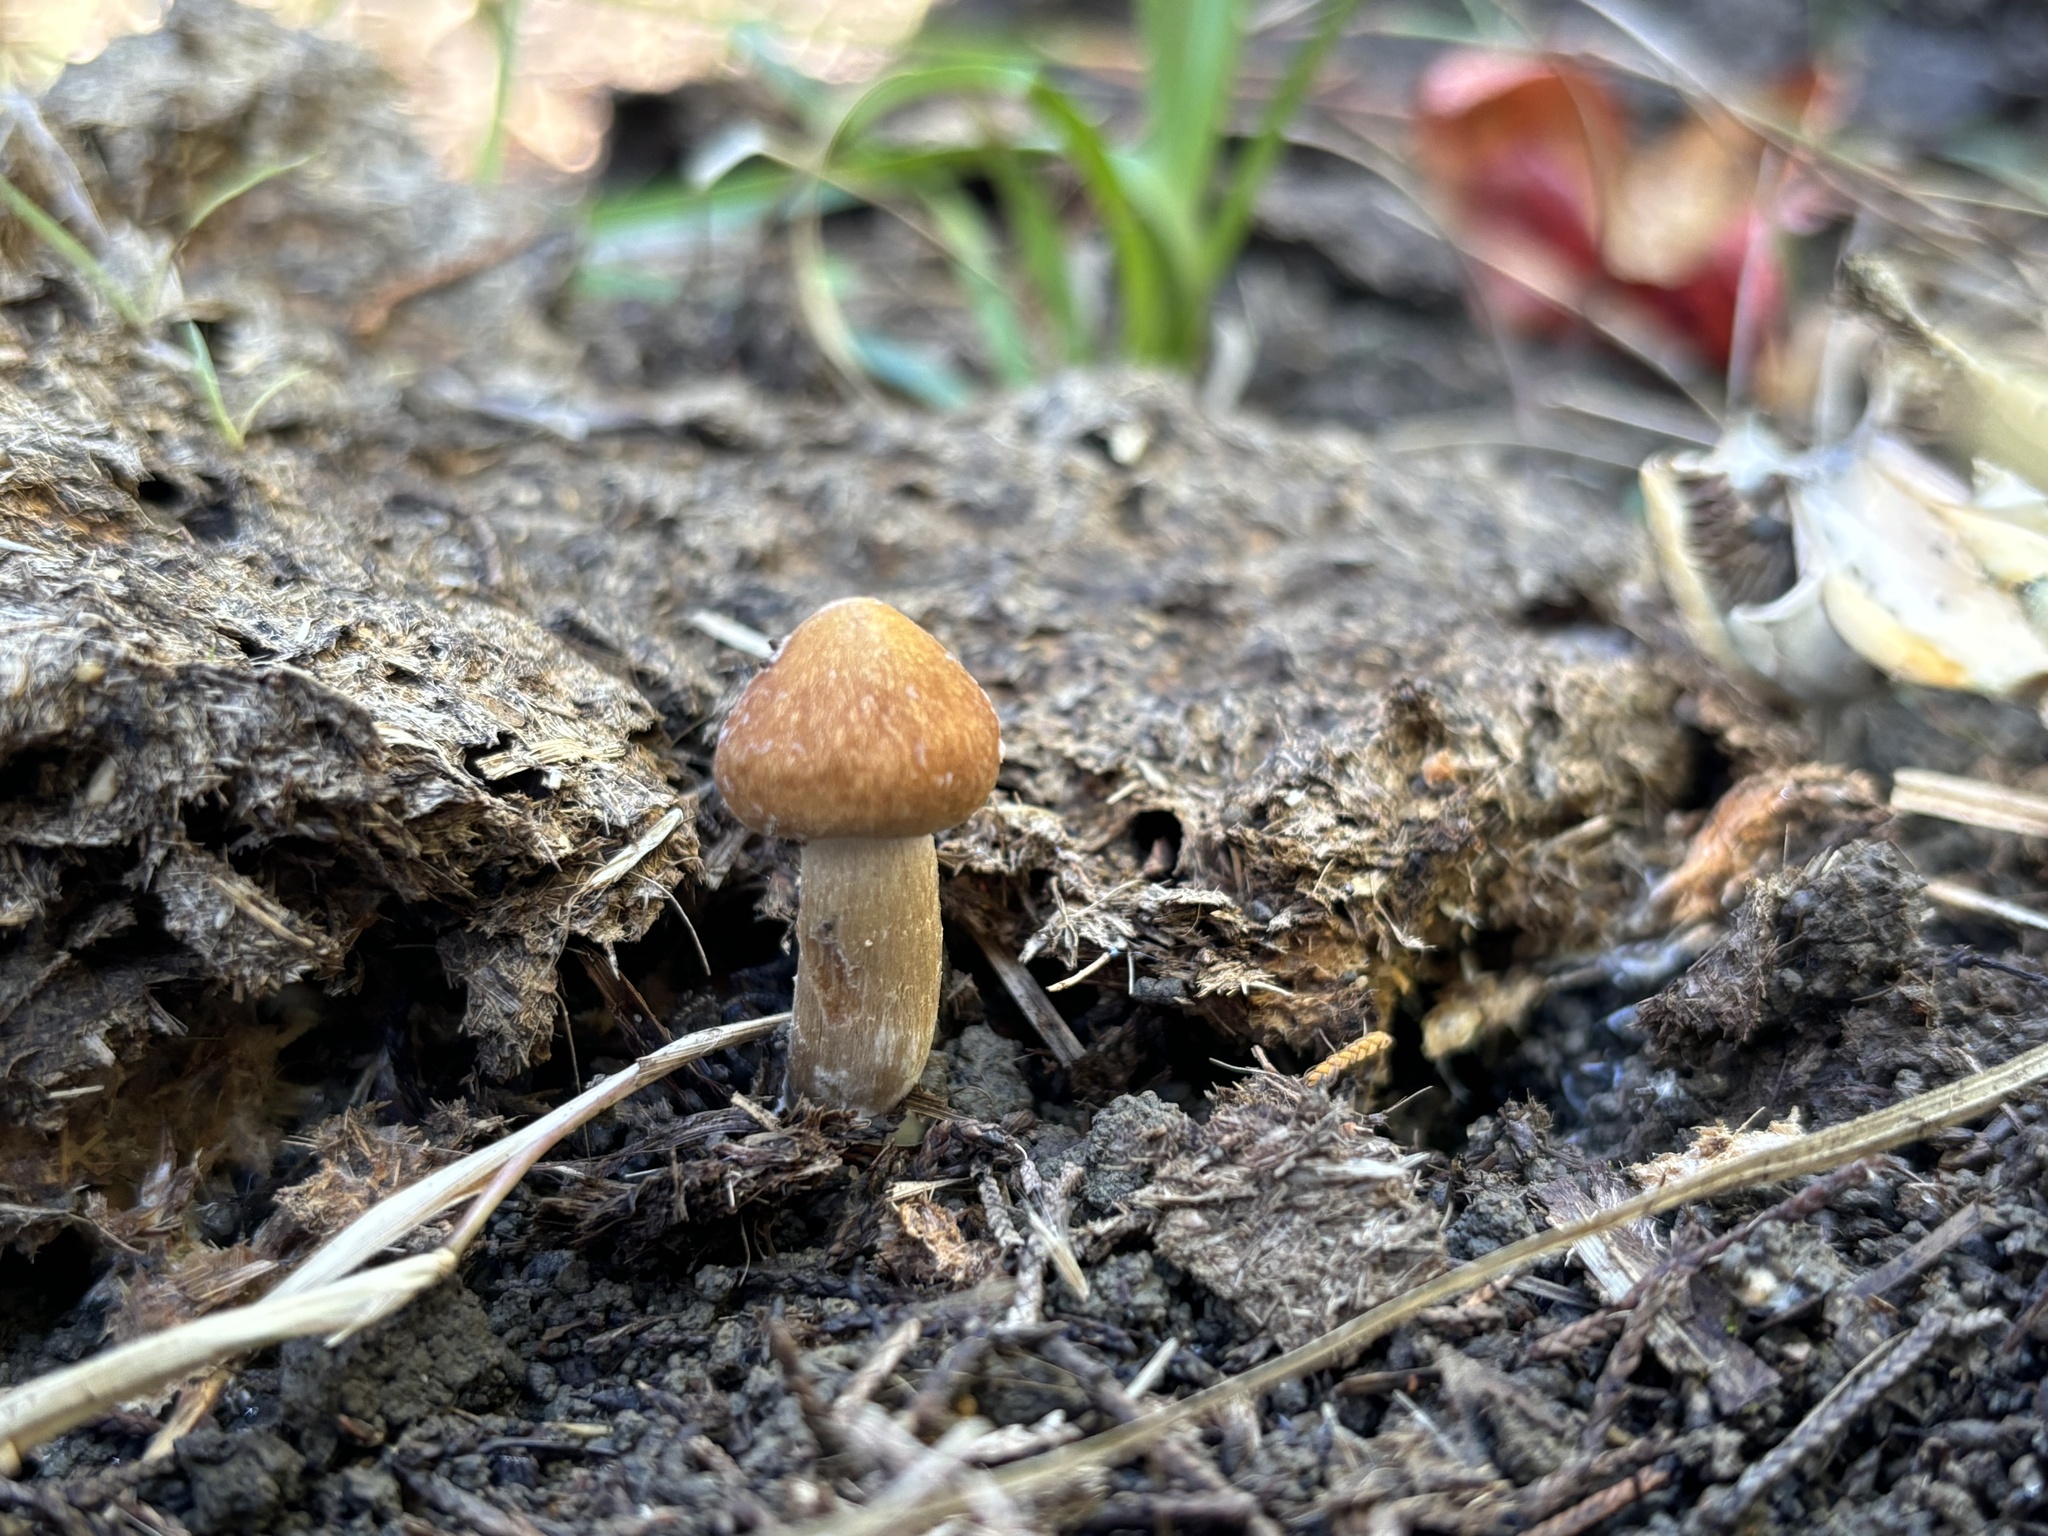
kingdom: Fungi
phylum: Basidiomycota
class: Agaricomycetes
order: Agaricales
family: Hymenogastraceae
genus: Psilocybe
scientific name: Psilocybe cubensis
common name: Golden brownie
